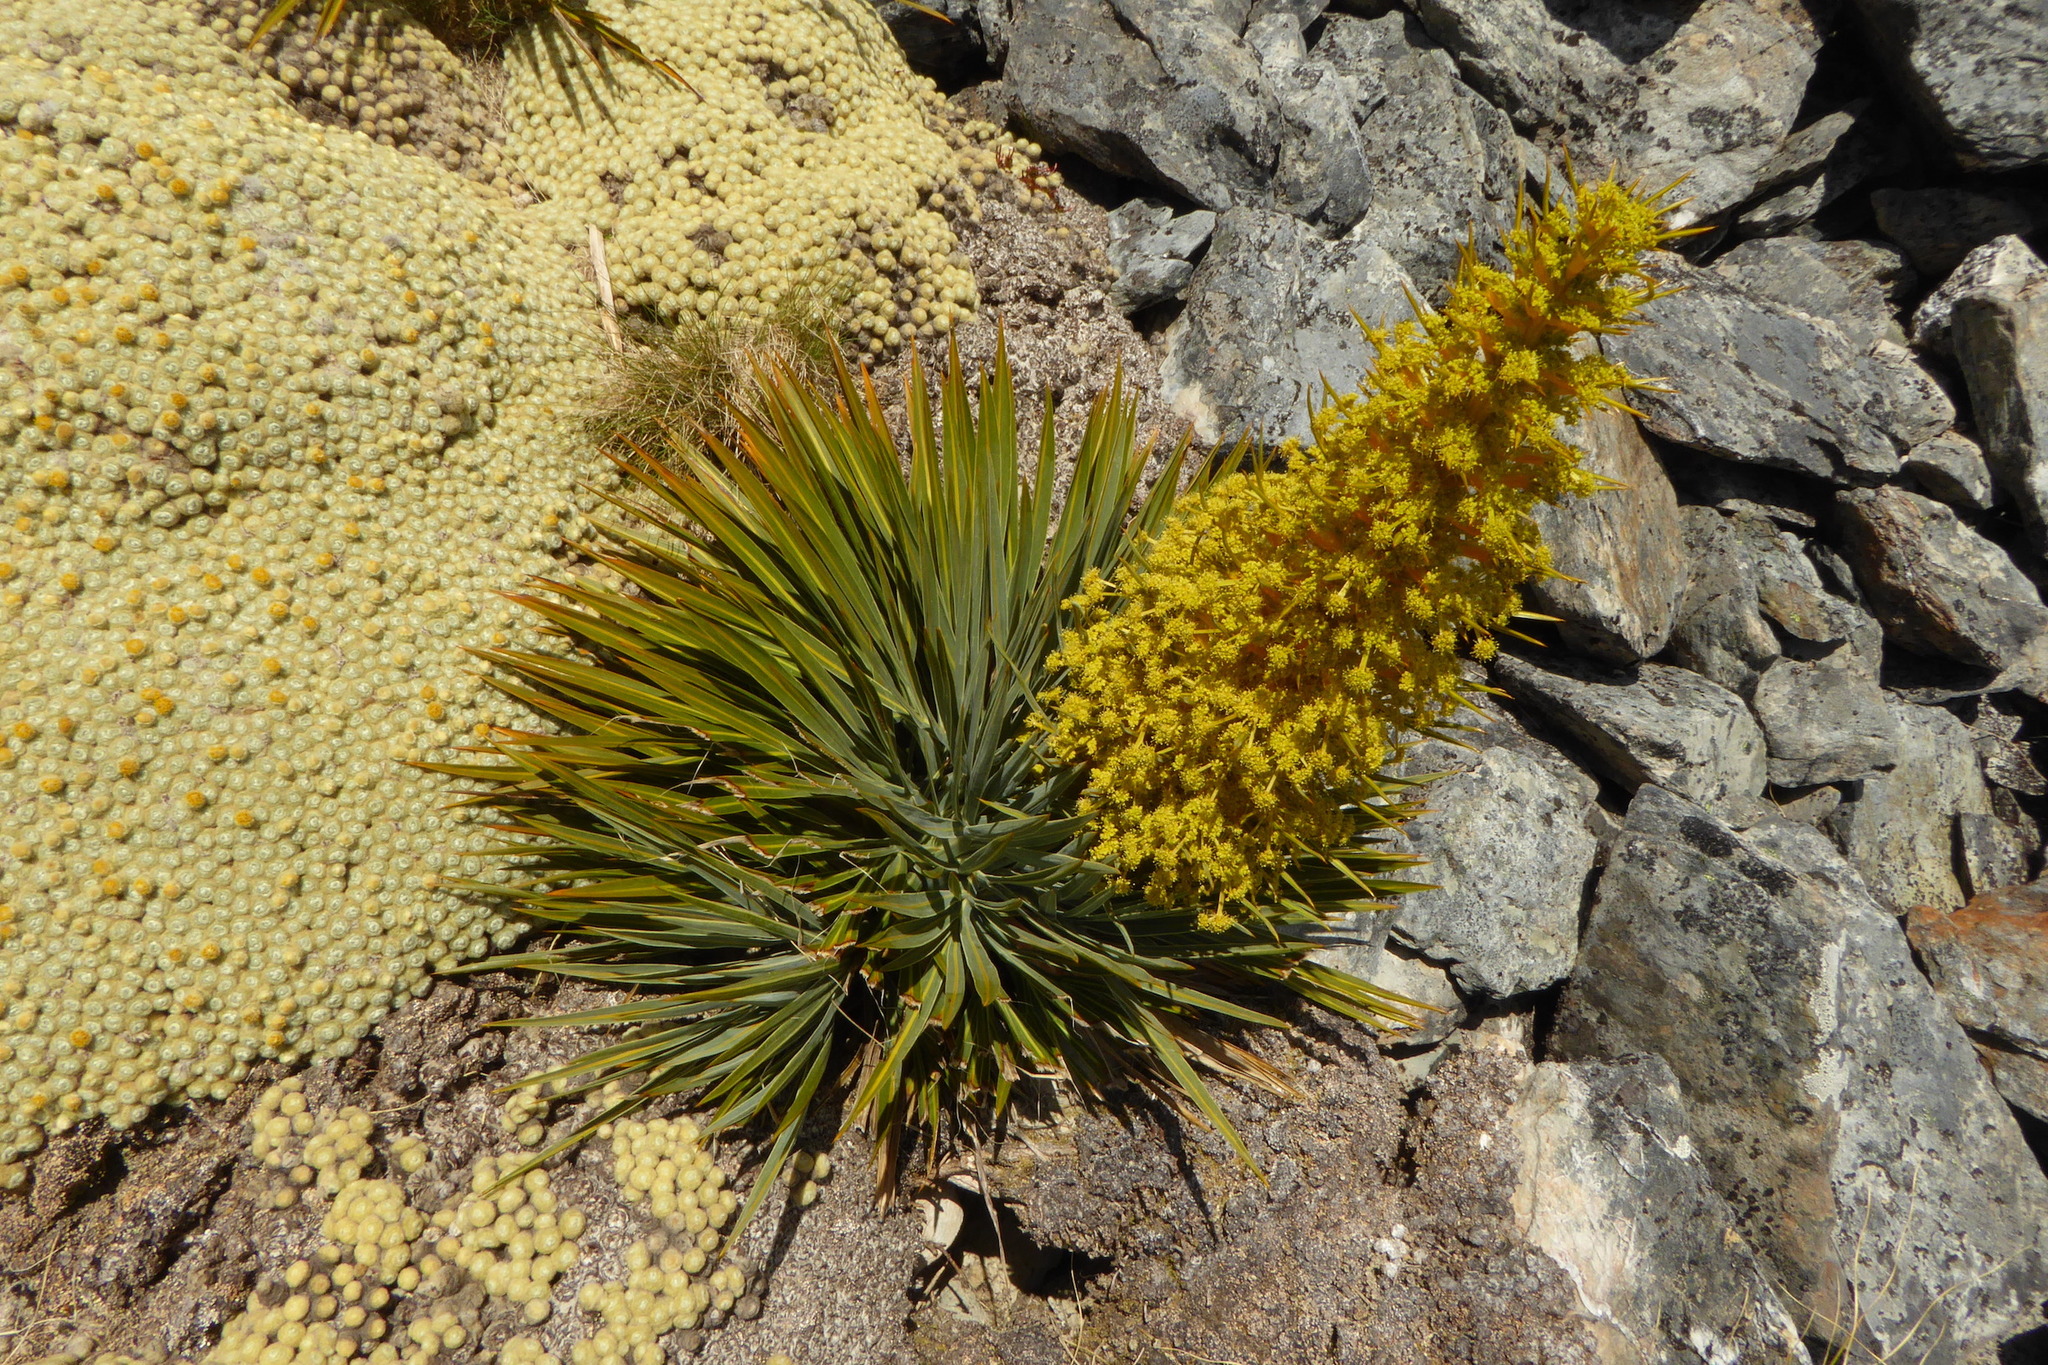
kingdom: Plantae
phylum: Tracheophyta
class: Magnoliopsida
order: Apiales
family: Apiaceae
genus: Aciphylla
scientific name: Aciphylla colensoi
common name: Colenso's spaniard
